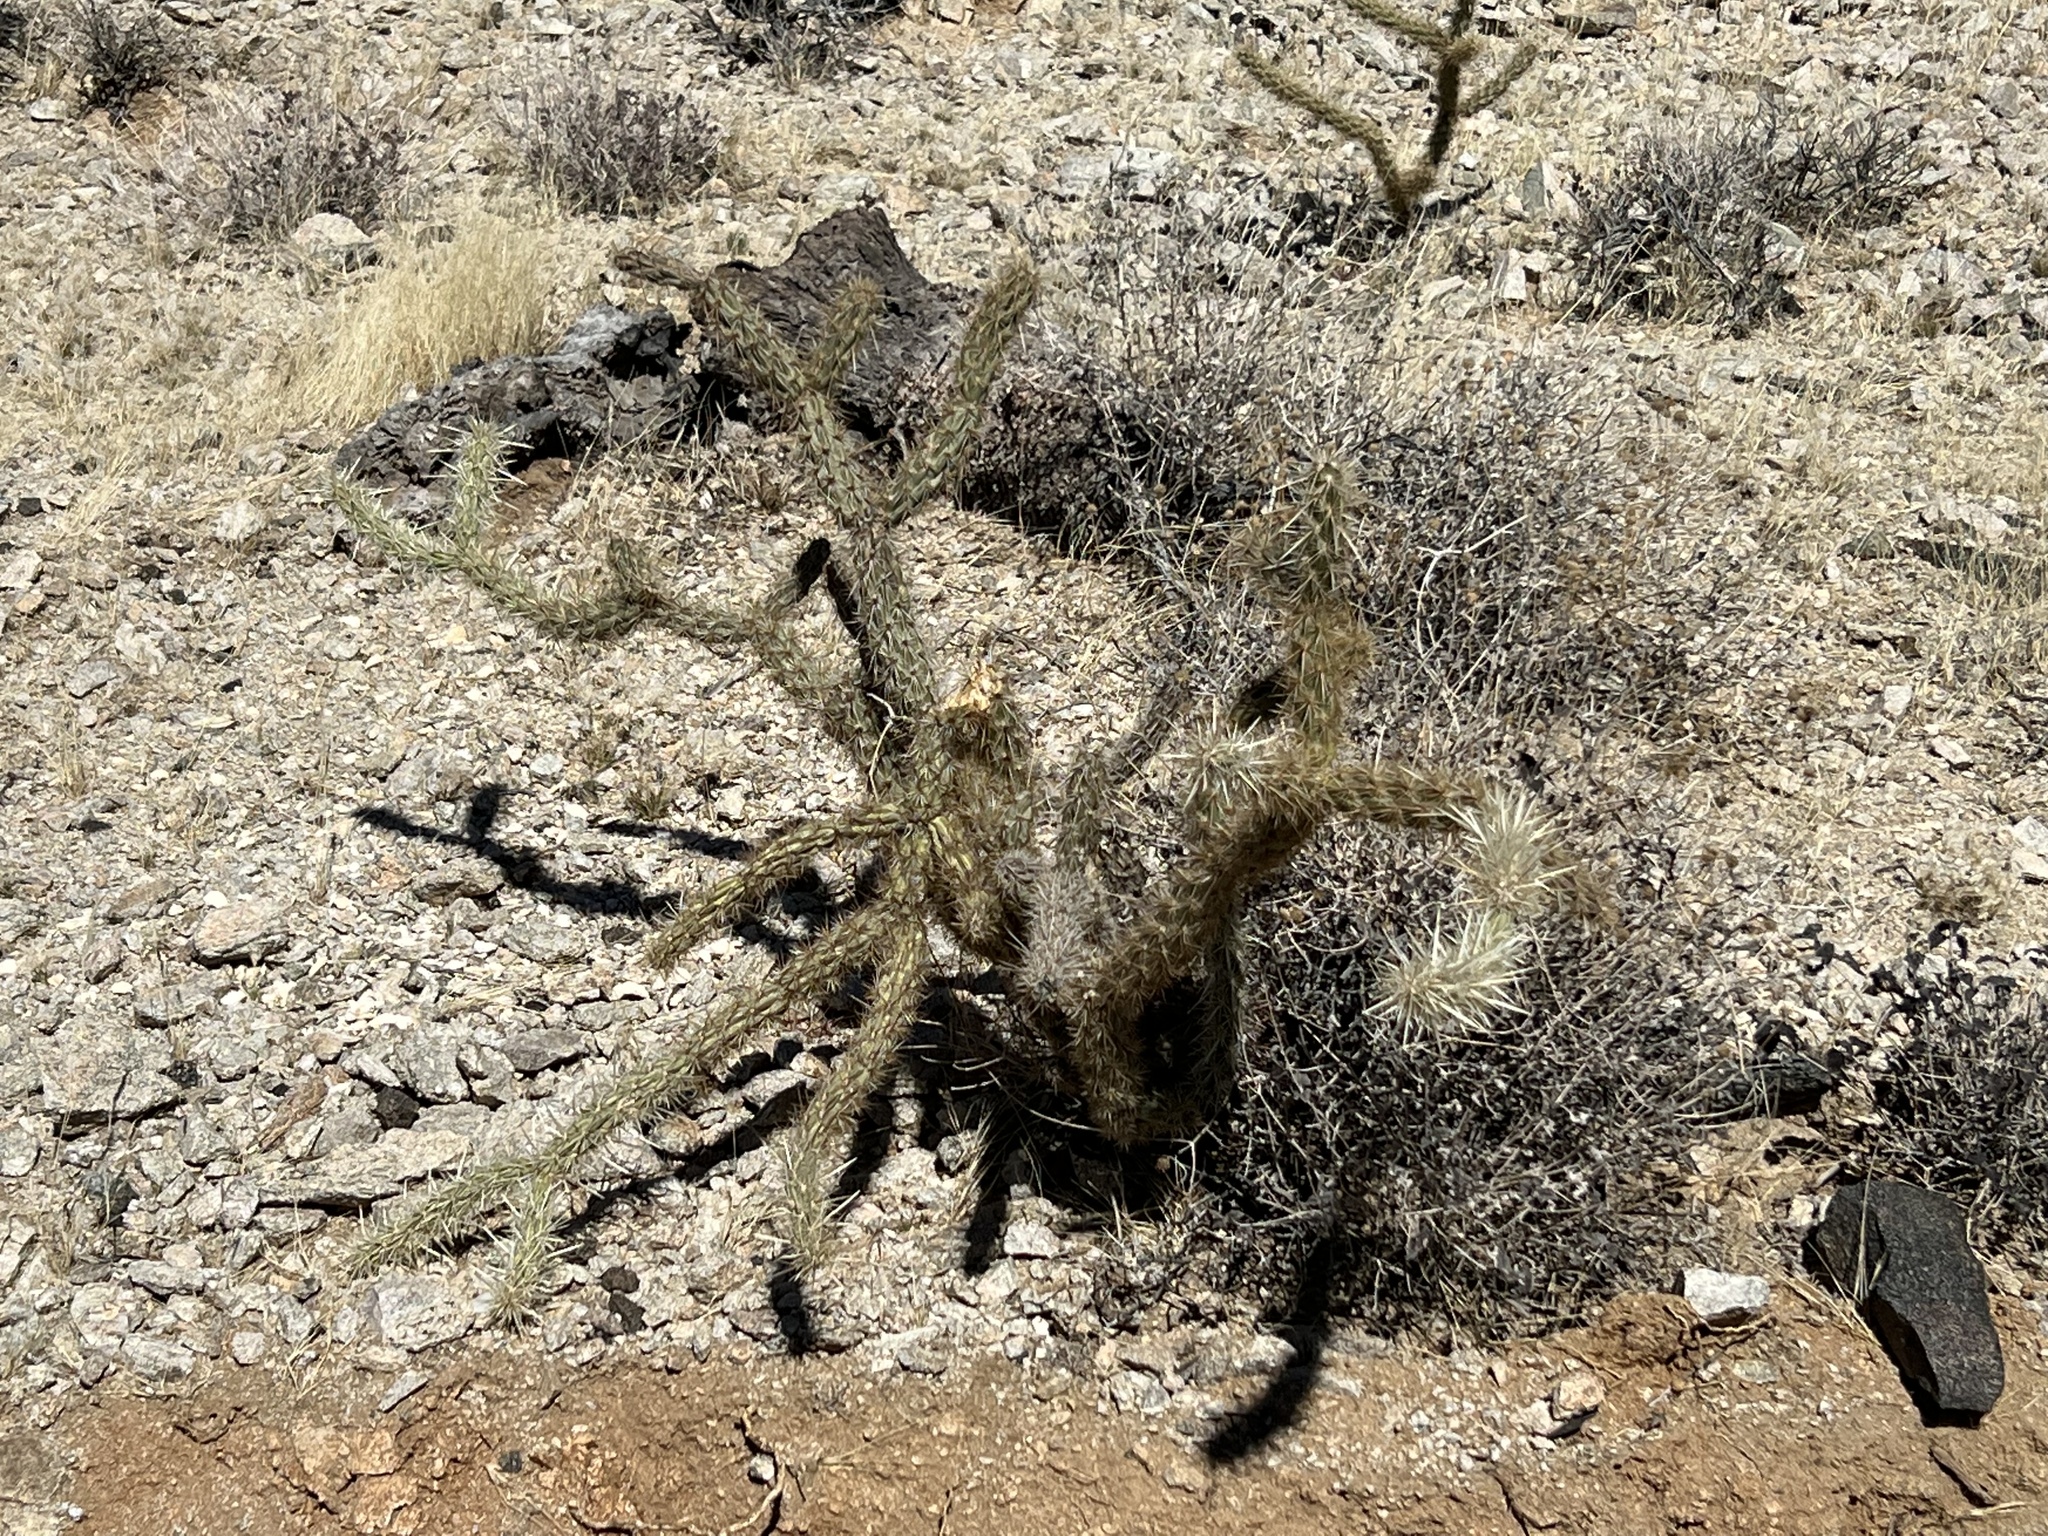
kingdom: Plantae
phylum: Tracheophyta
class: Magnoliopsida
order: Caryophyllales
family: Cactaceae
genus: Cylindropuntia
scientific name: Cylindropuntia acanthocarpa
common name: Buckhorn cholla
